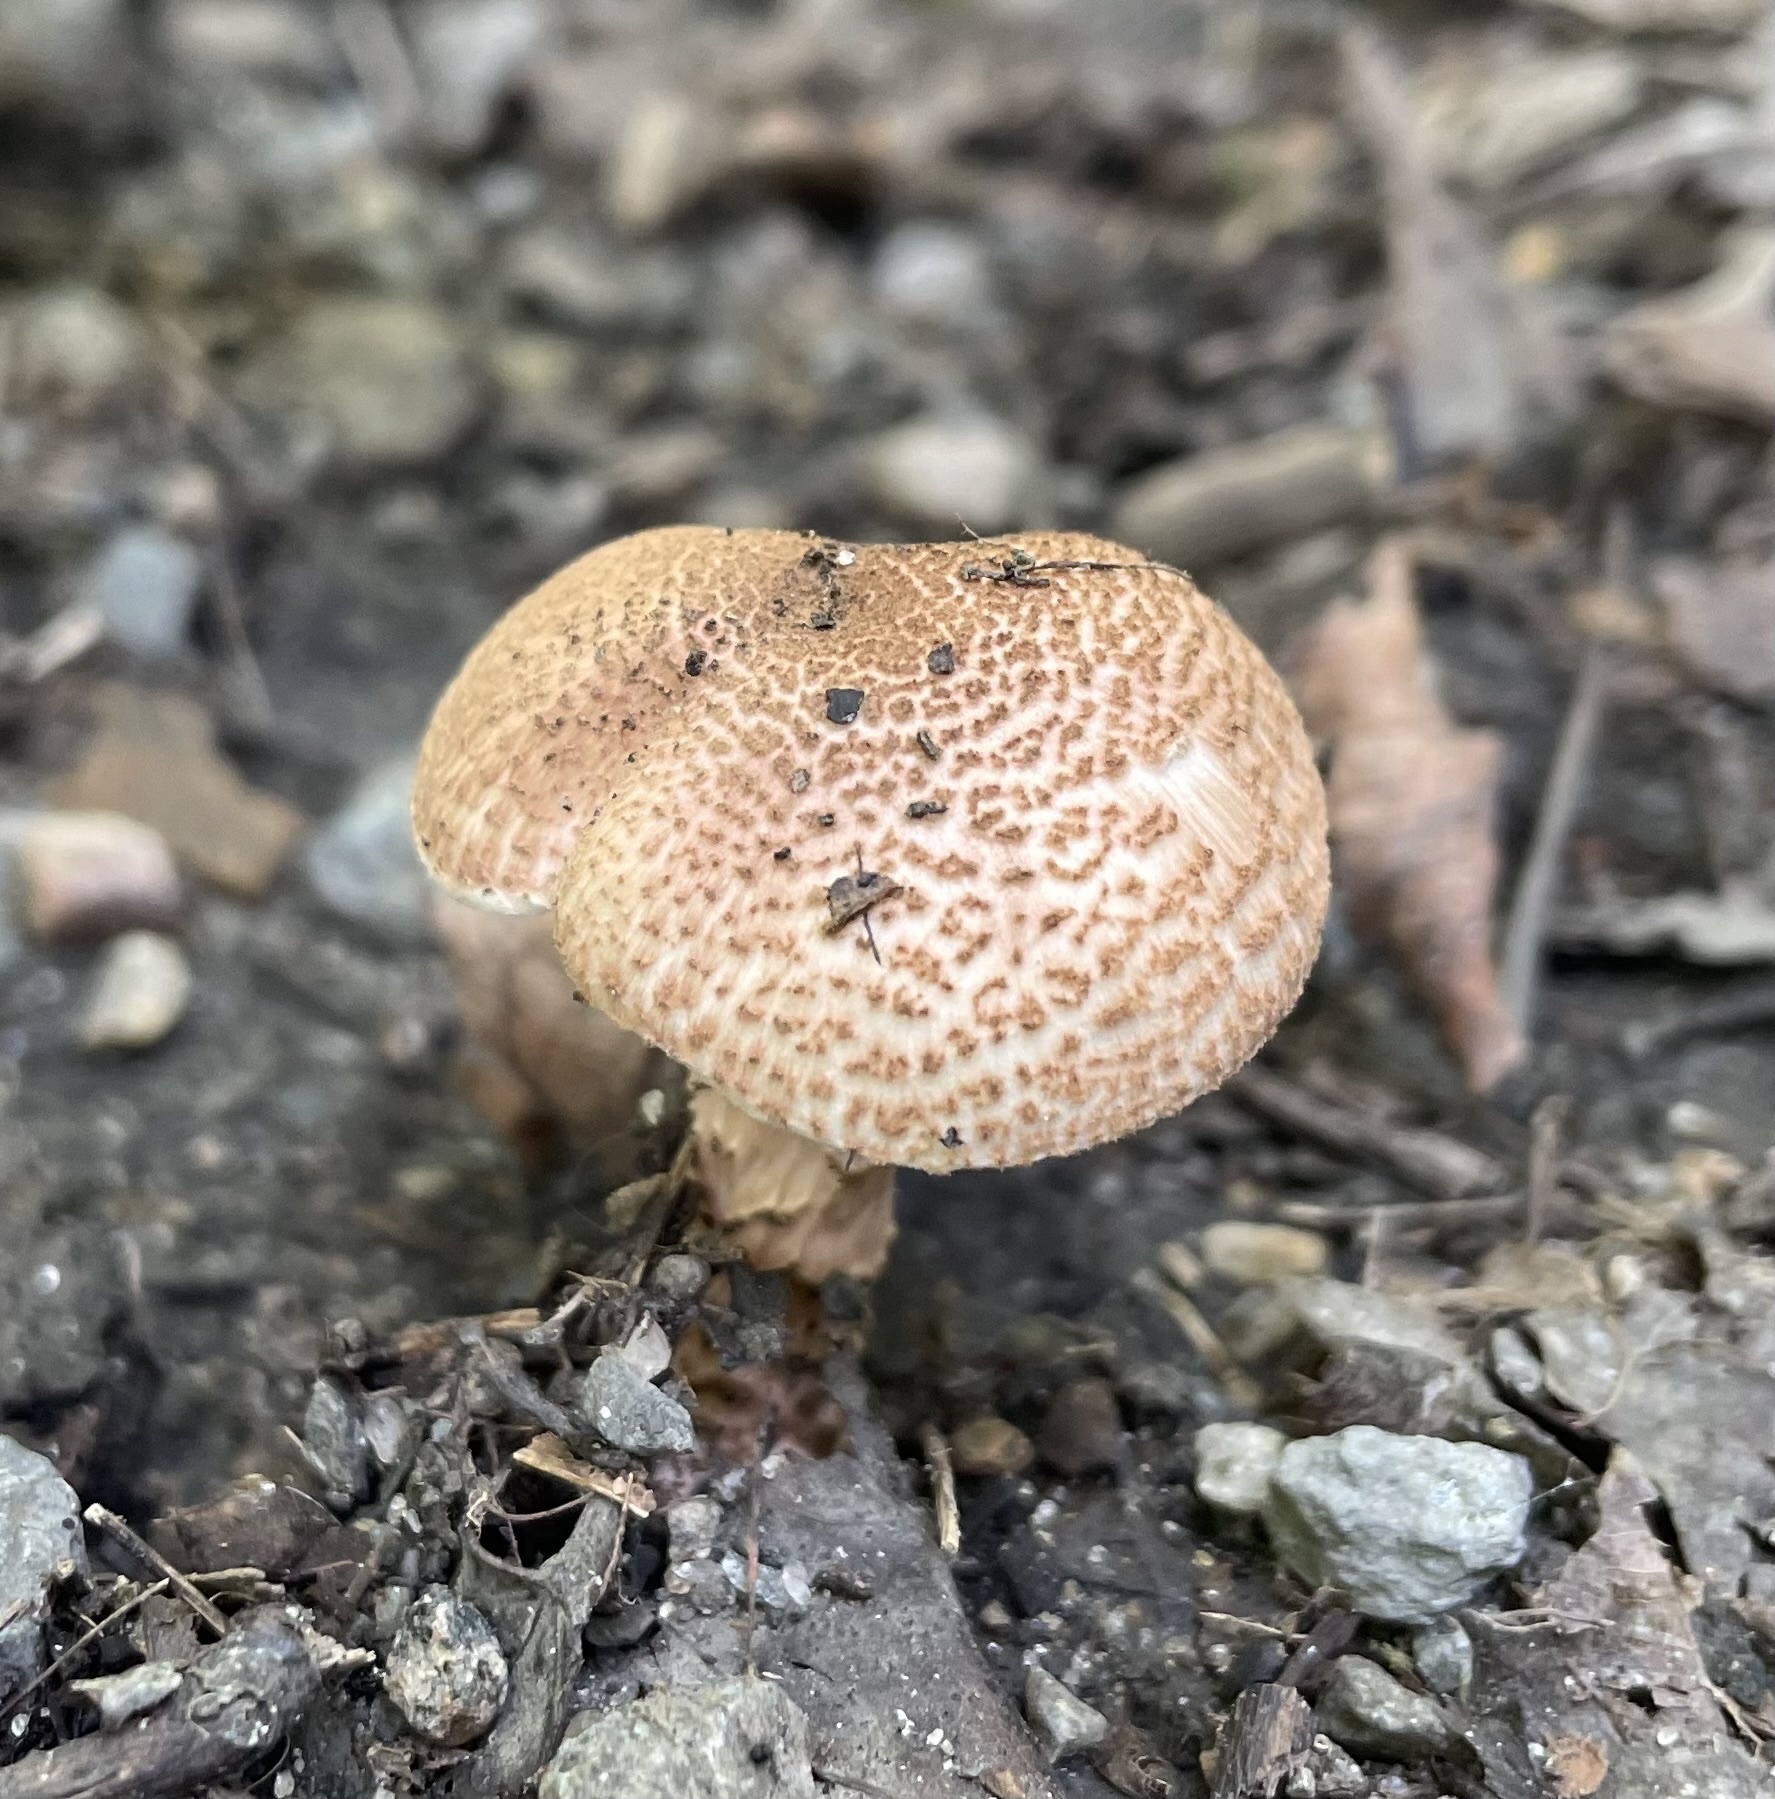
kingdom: Fungi
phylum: Basidiomycota
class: Agaricomycetes
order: Agaricales
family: Agaricaceae
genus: Echinoderma
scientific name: Echinoderma asperum
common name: Freckled dapperling
